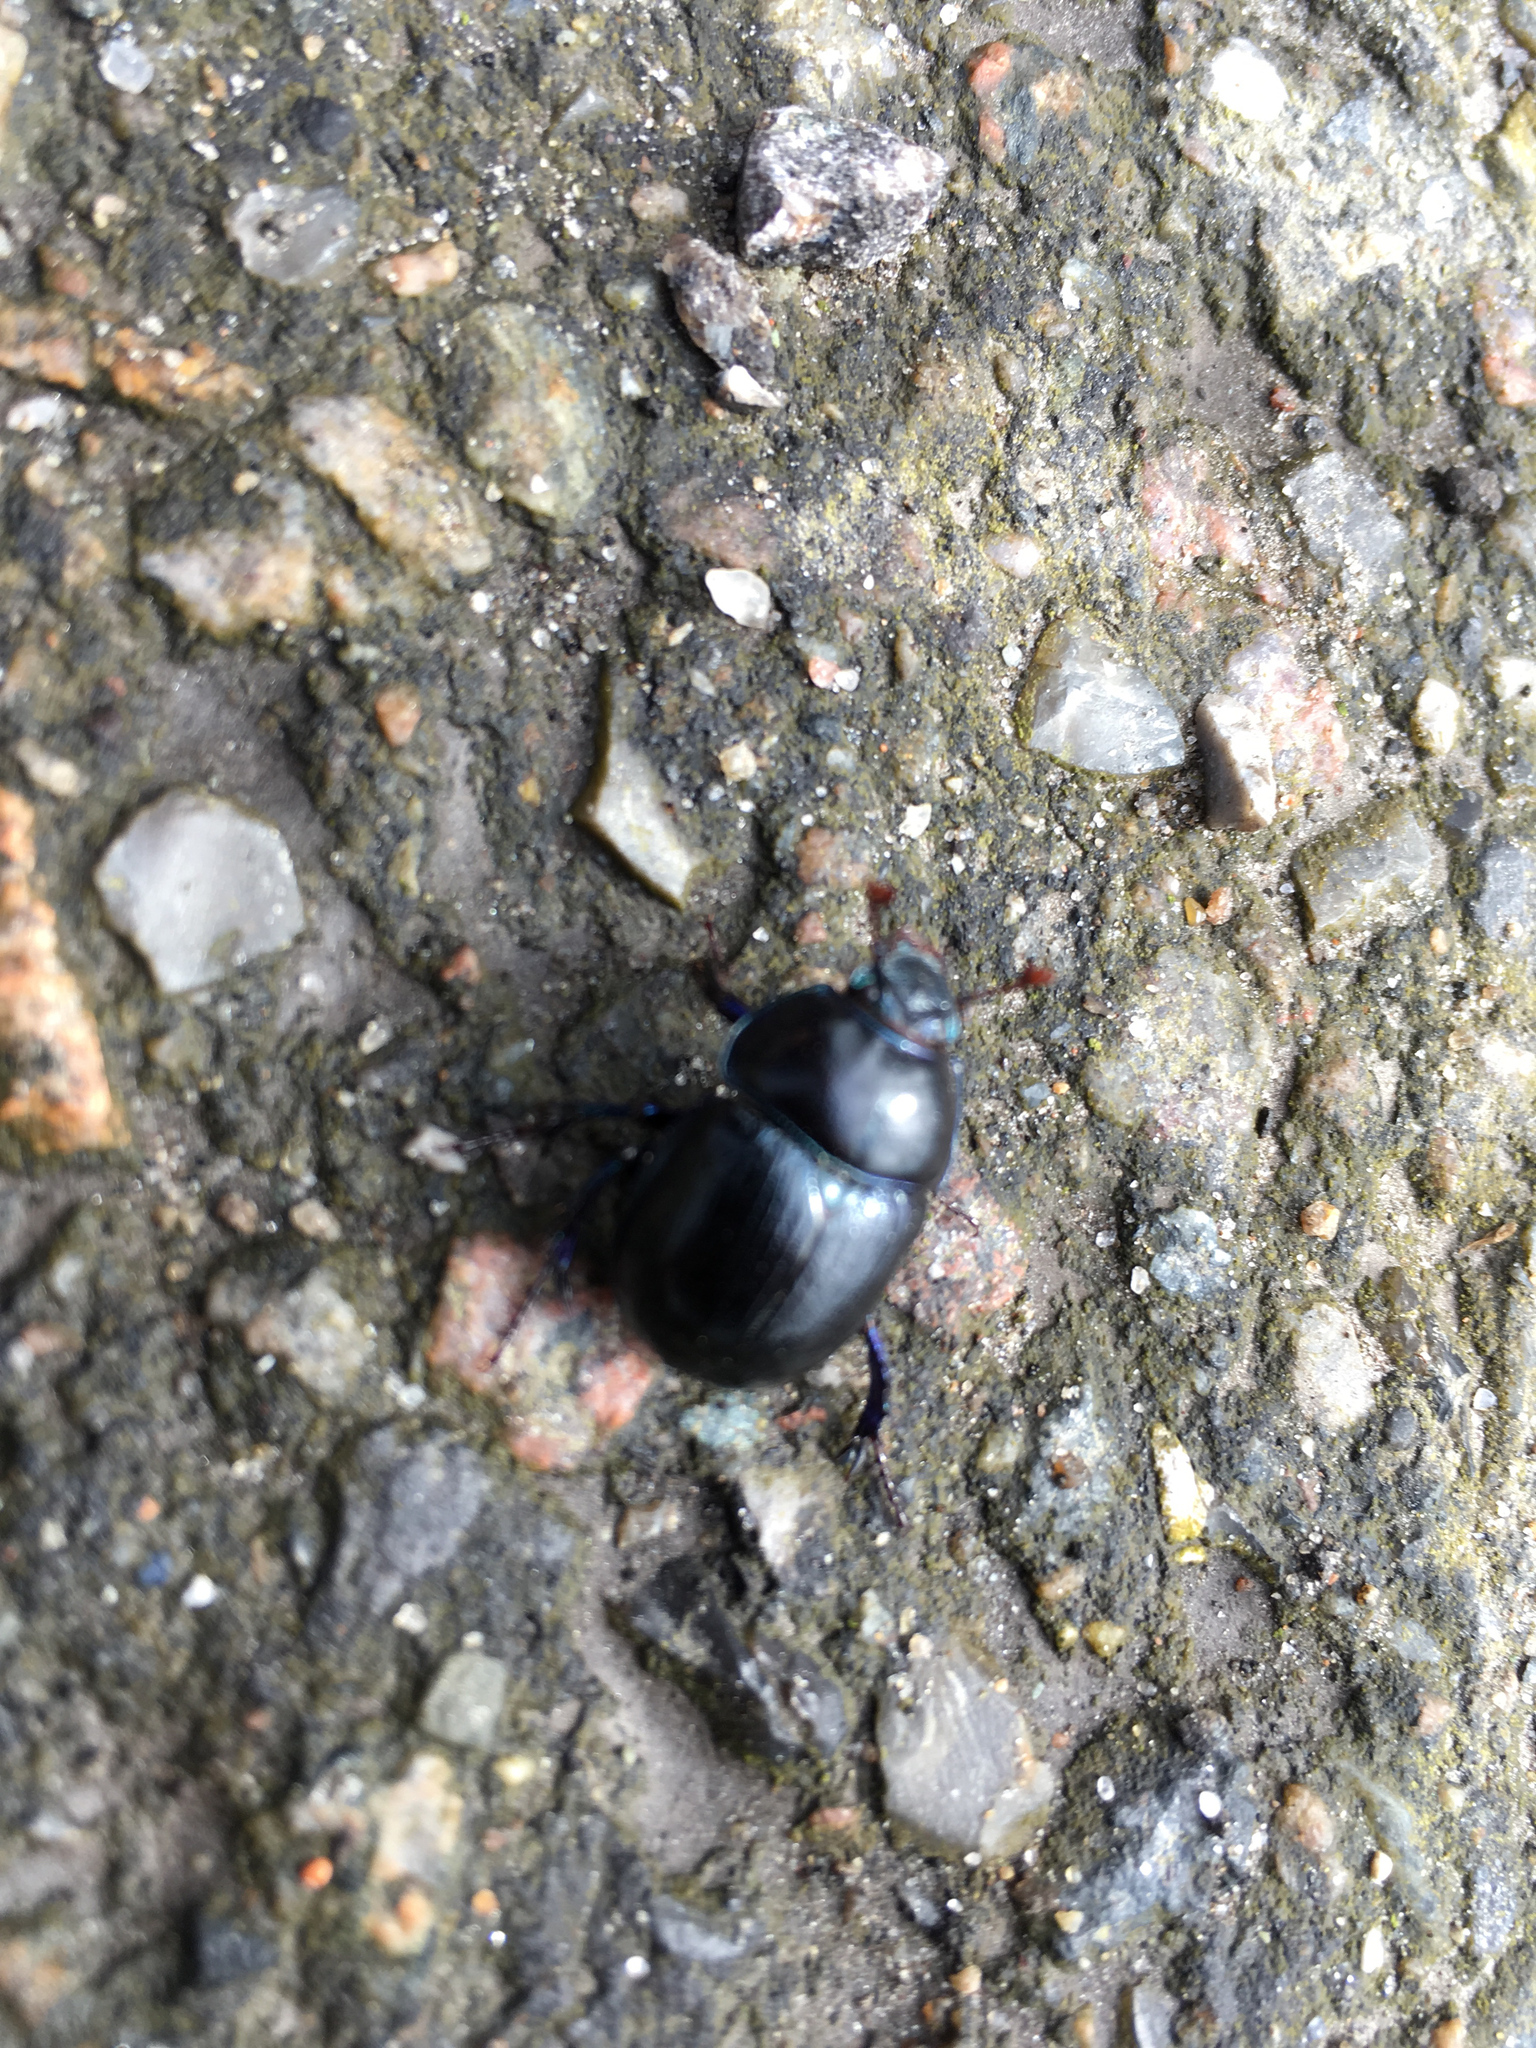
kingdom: Animalia
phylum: Arthropoda
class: Insecta
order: Coleoptera
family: Geotrupidae
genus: Anoplotrupes
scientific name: Anoplotrupes stercorosus
